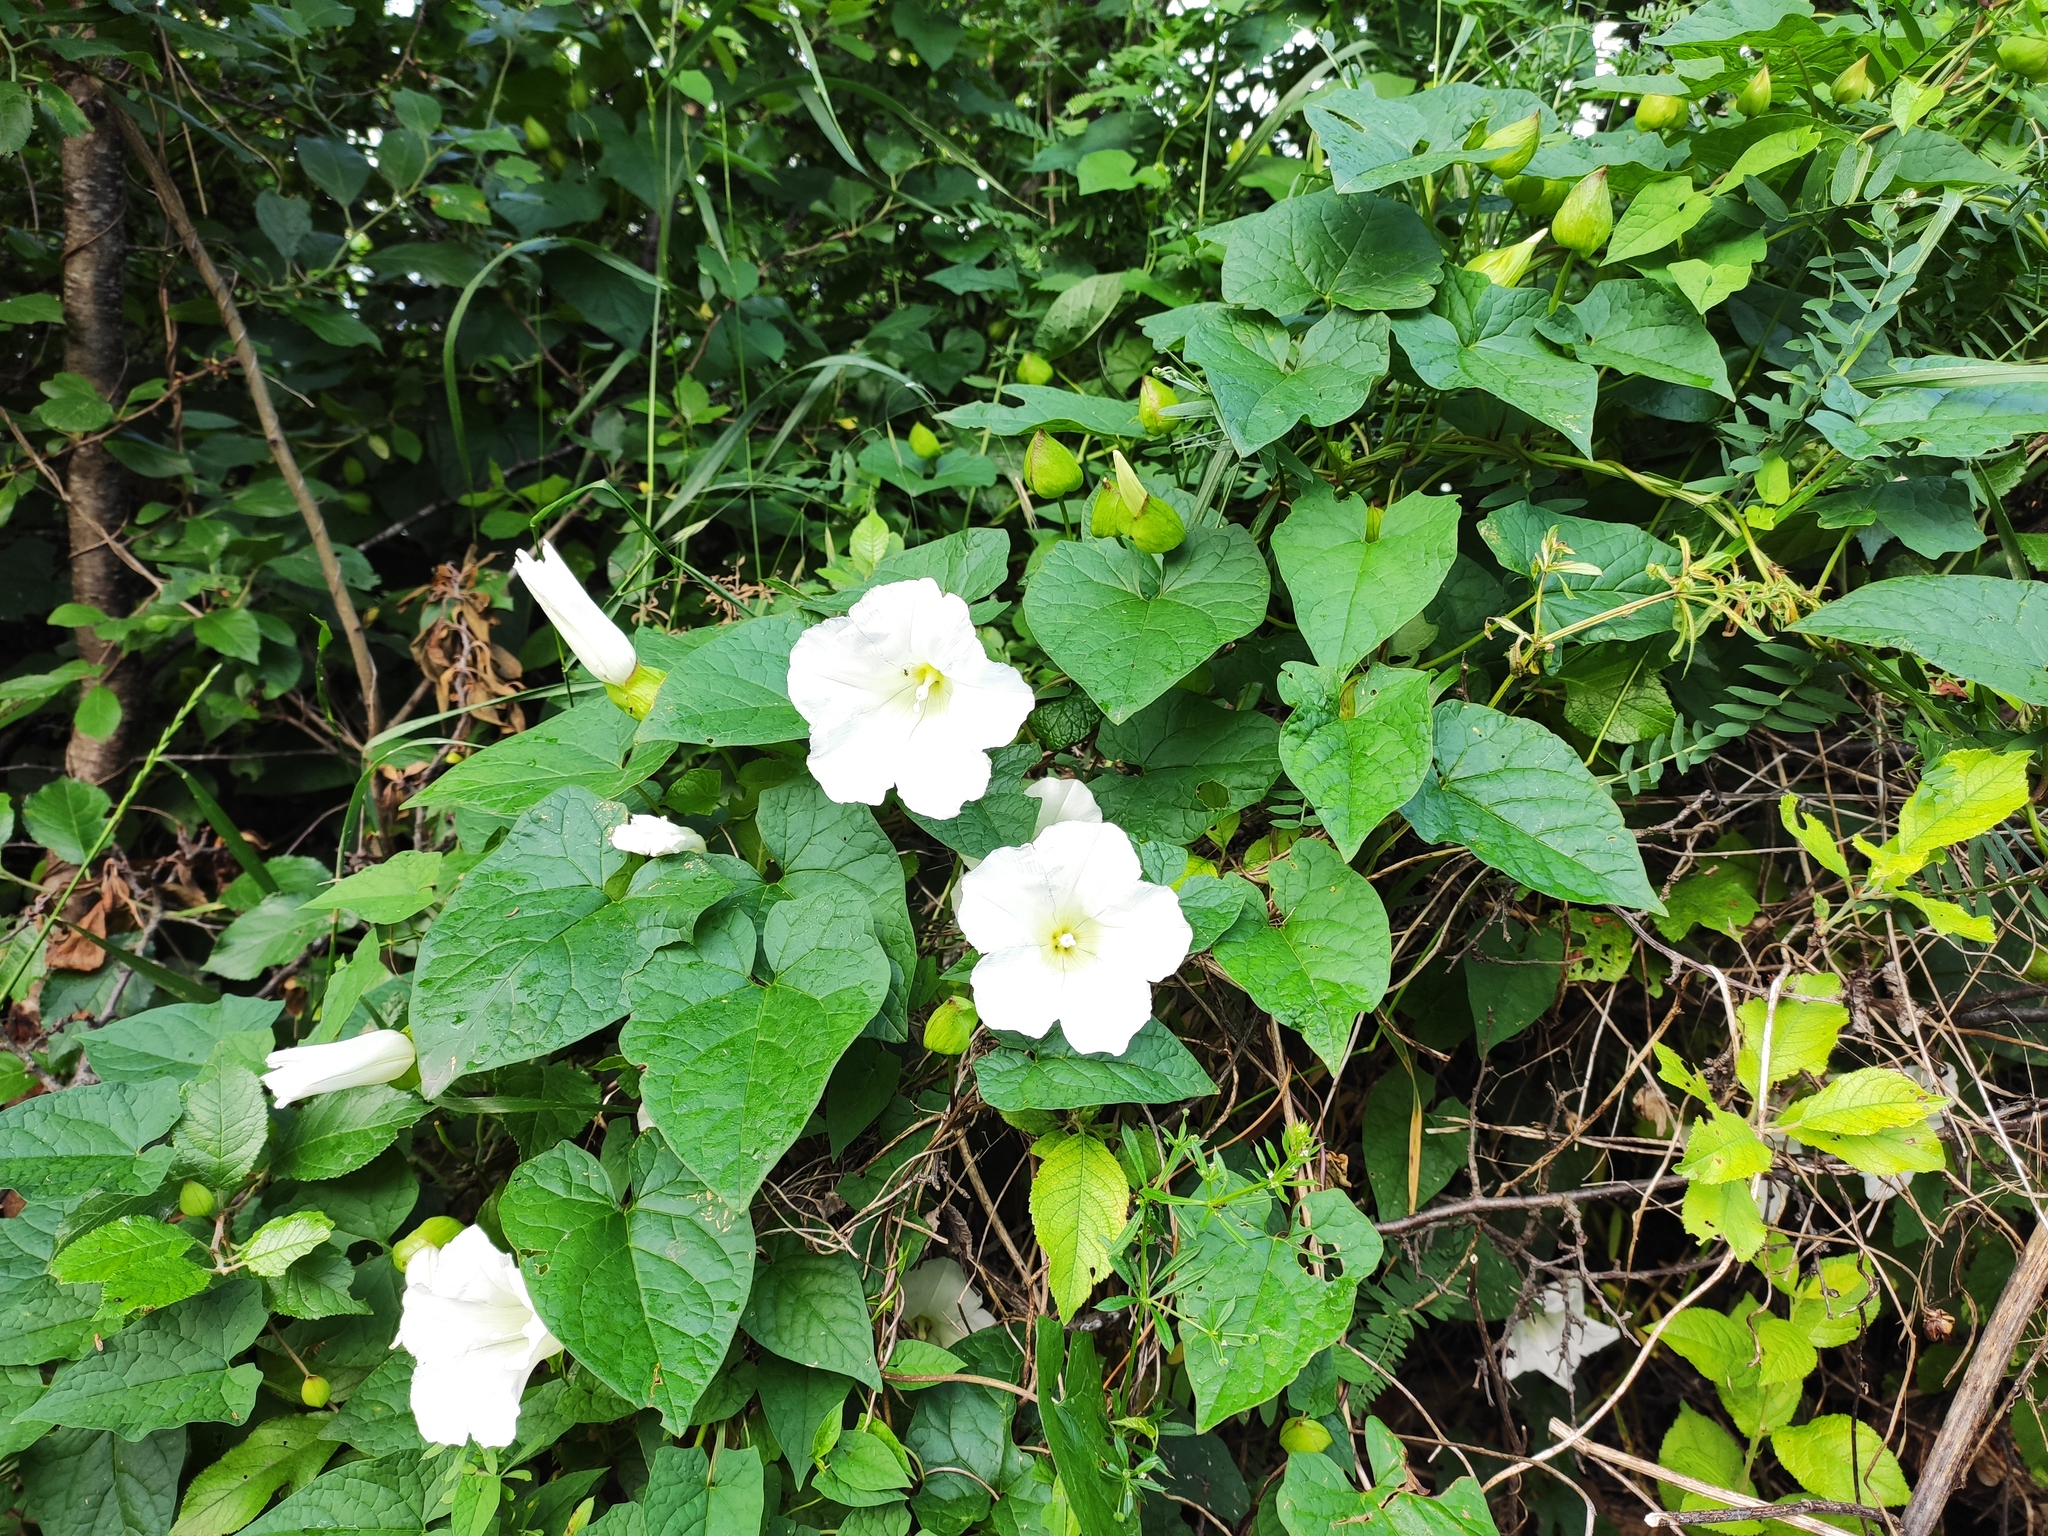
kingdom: Plantae
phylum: Tracheophyta
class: Magnoliopsida
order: Solanales
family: Convolvulaceae
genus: Calystegia
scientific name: Calystegia silvatica
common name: Large bindweed
